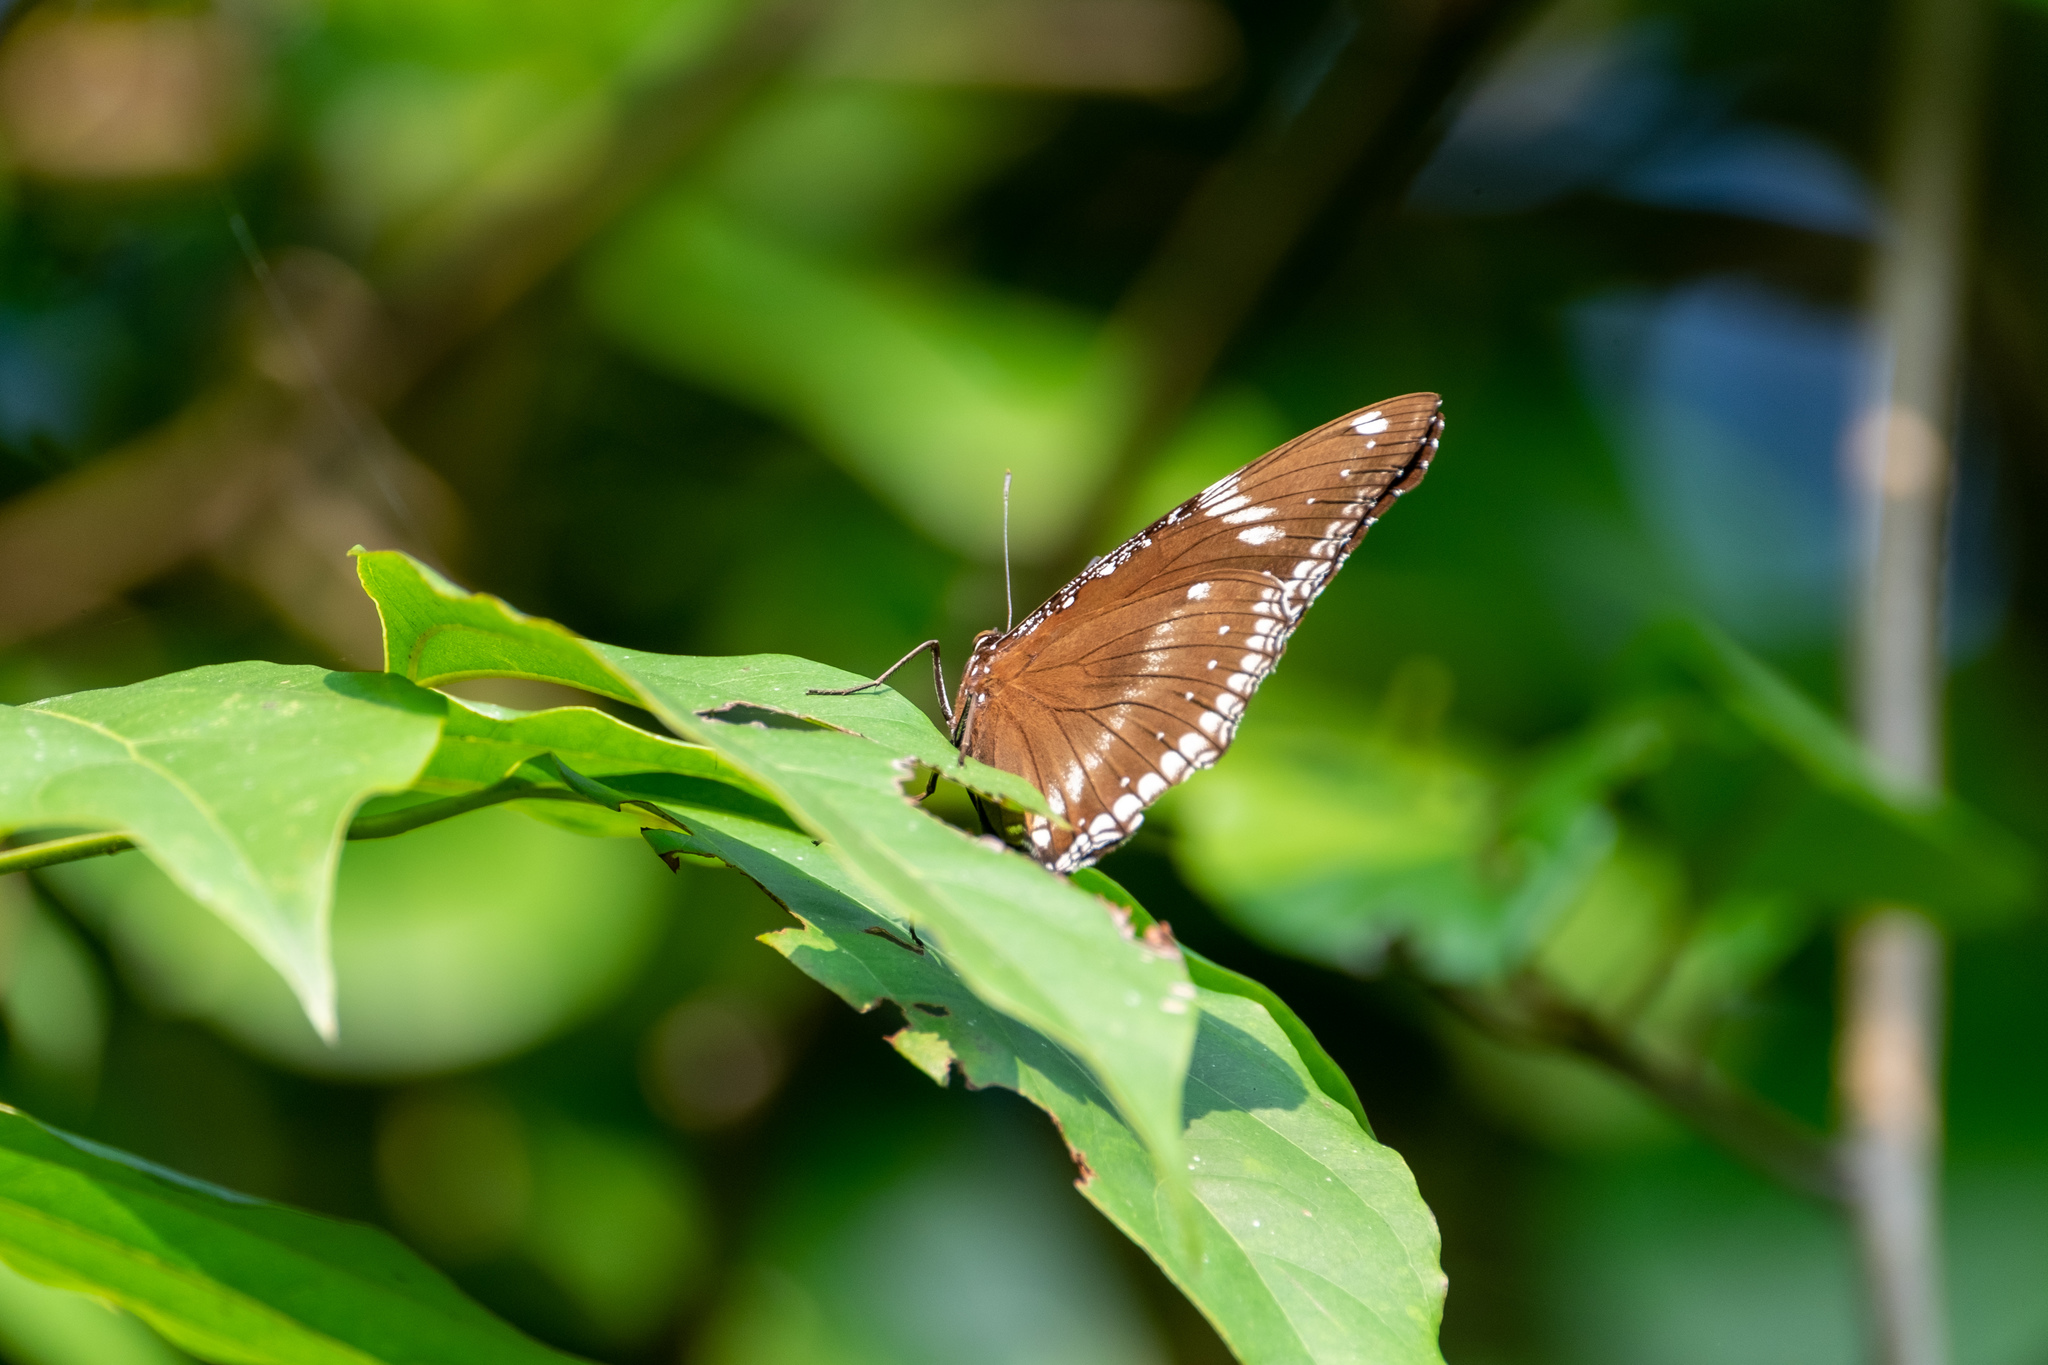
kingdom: Animalia
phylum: Arthropoda
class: Insecta
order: Lepidoptera
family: Nymphalidae
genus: Hypolimnas
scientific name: Hypolimnas bolina
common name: Great eggfly
